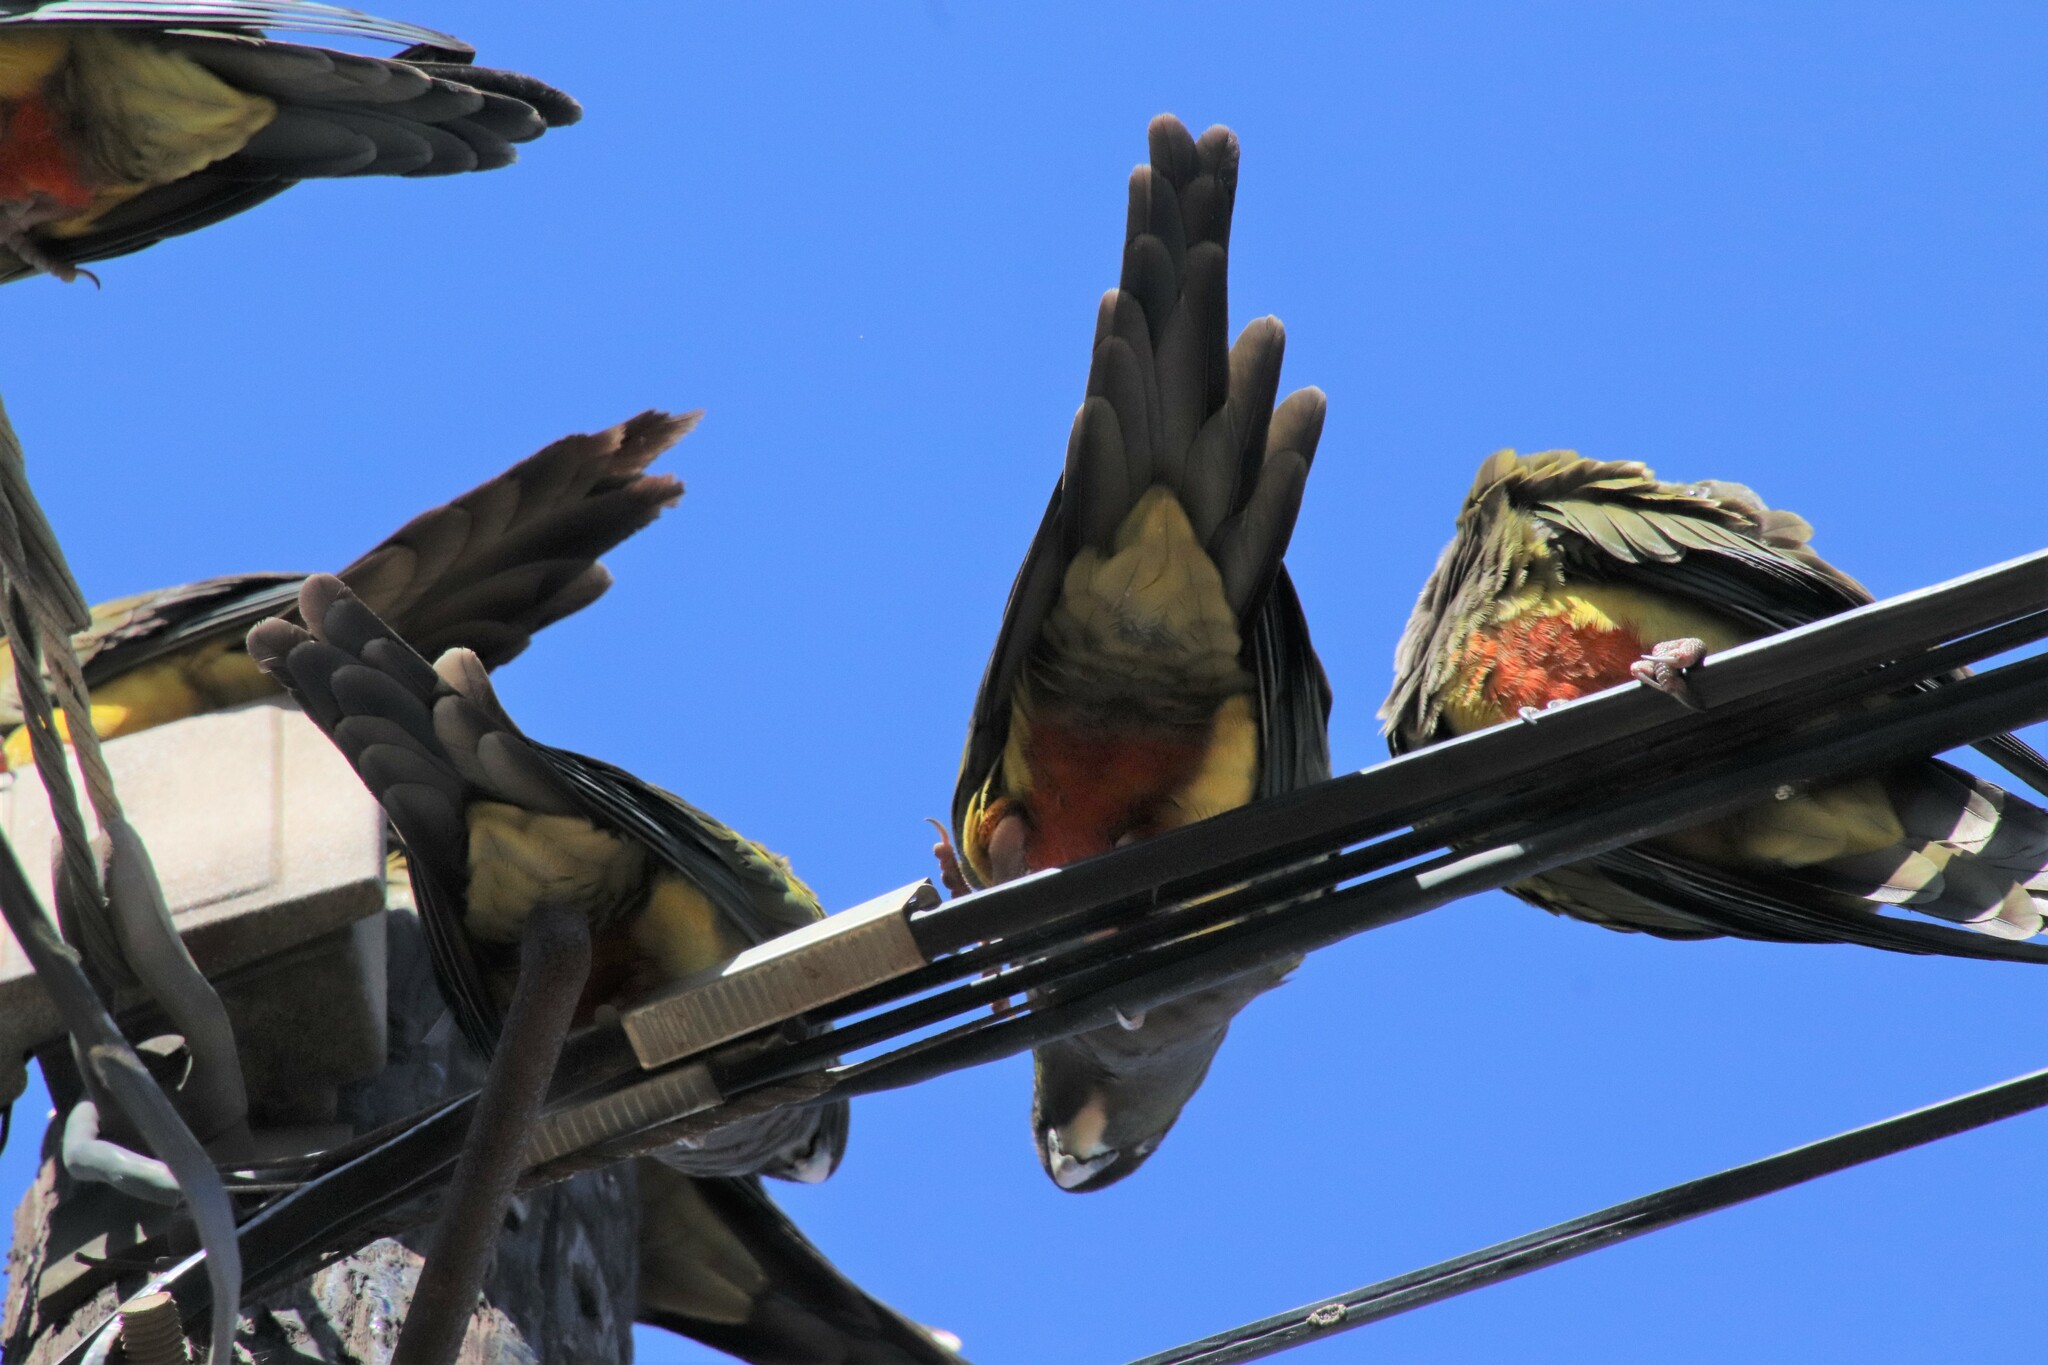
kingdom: Animalia
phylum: Chordata
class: Aves
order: Psittaciformes
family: Psittacidae
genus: Cyanoliseus
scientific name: Cyanoliseus patagonus
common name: Burrowing parrot
